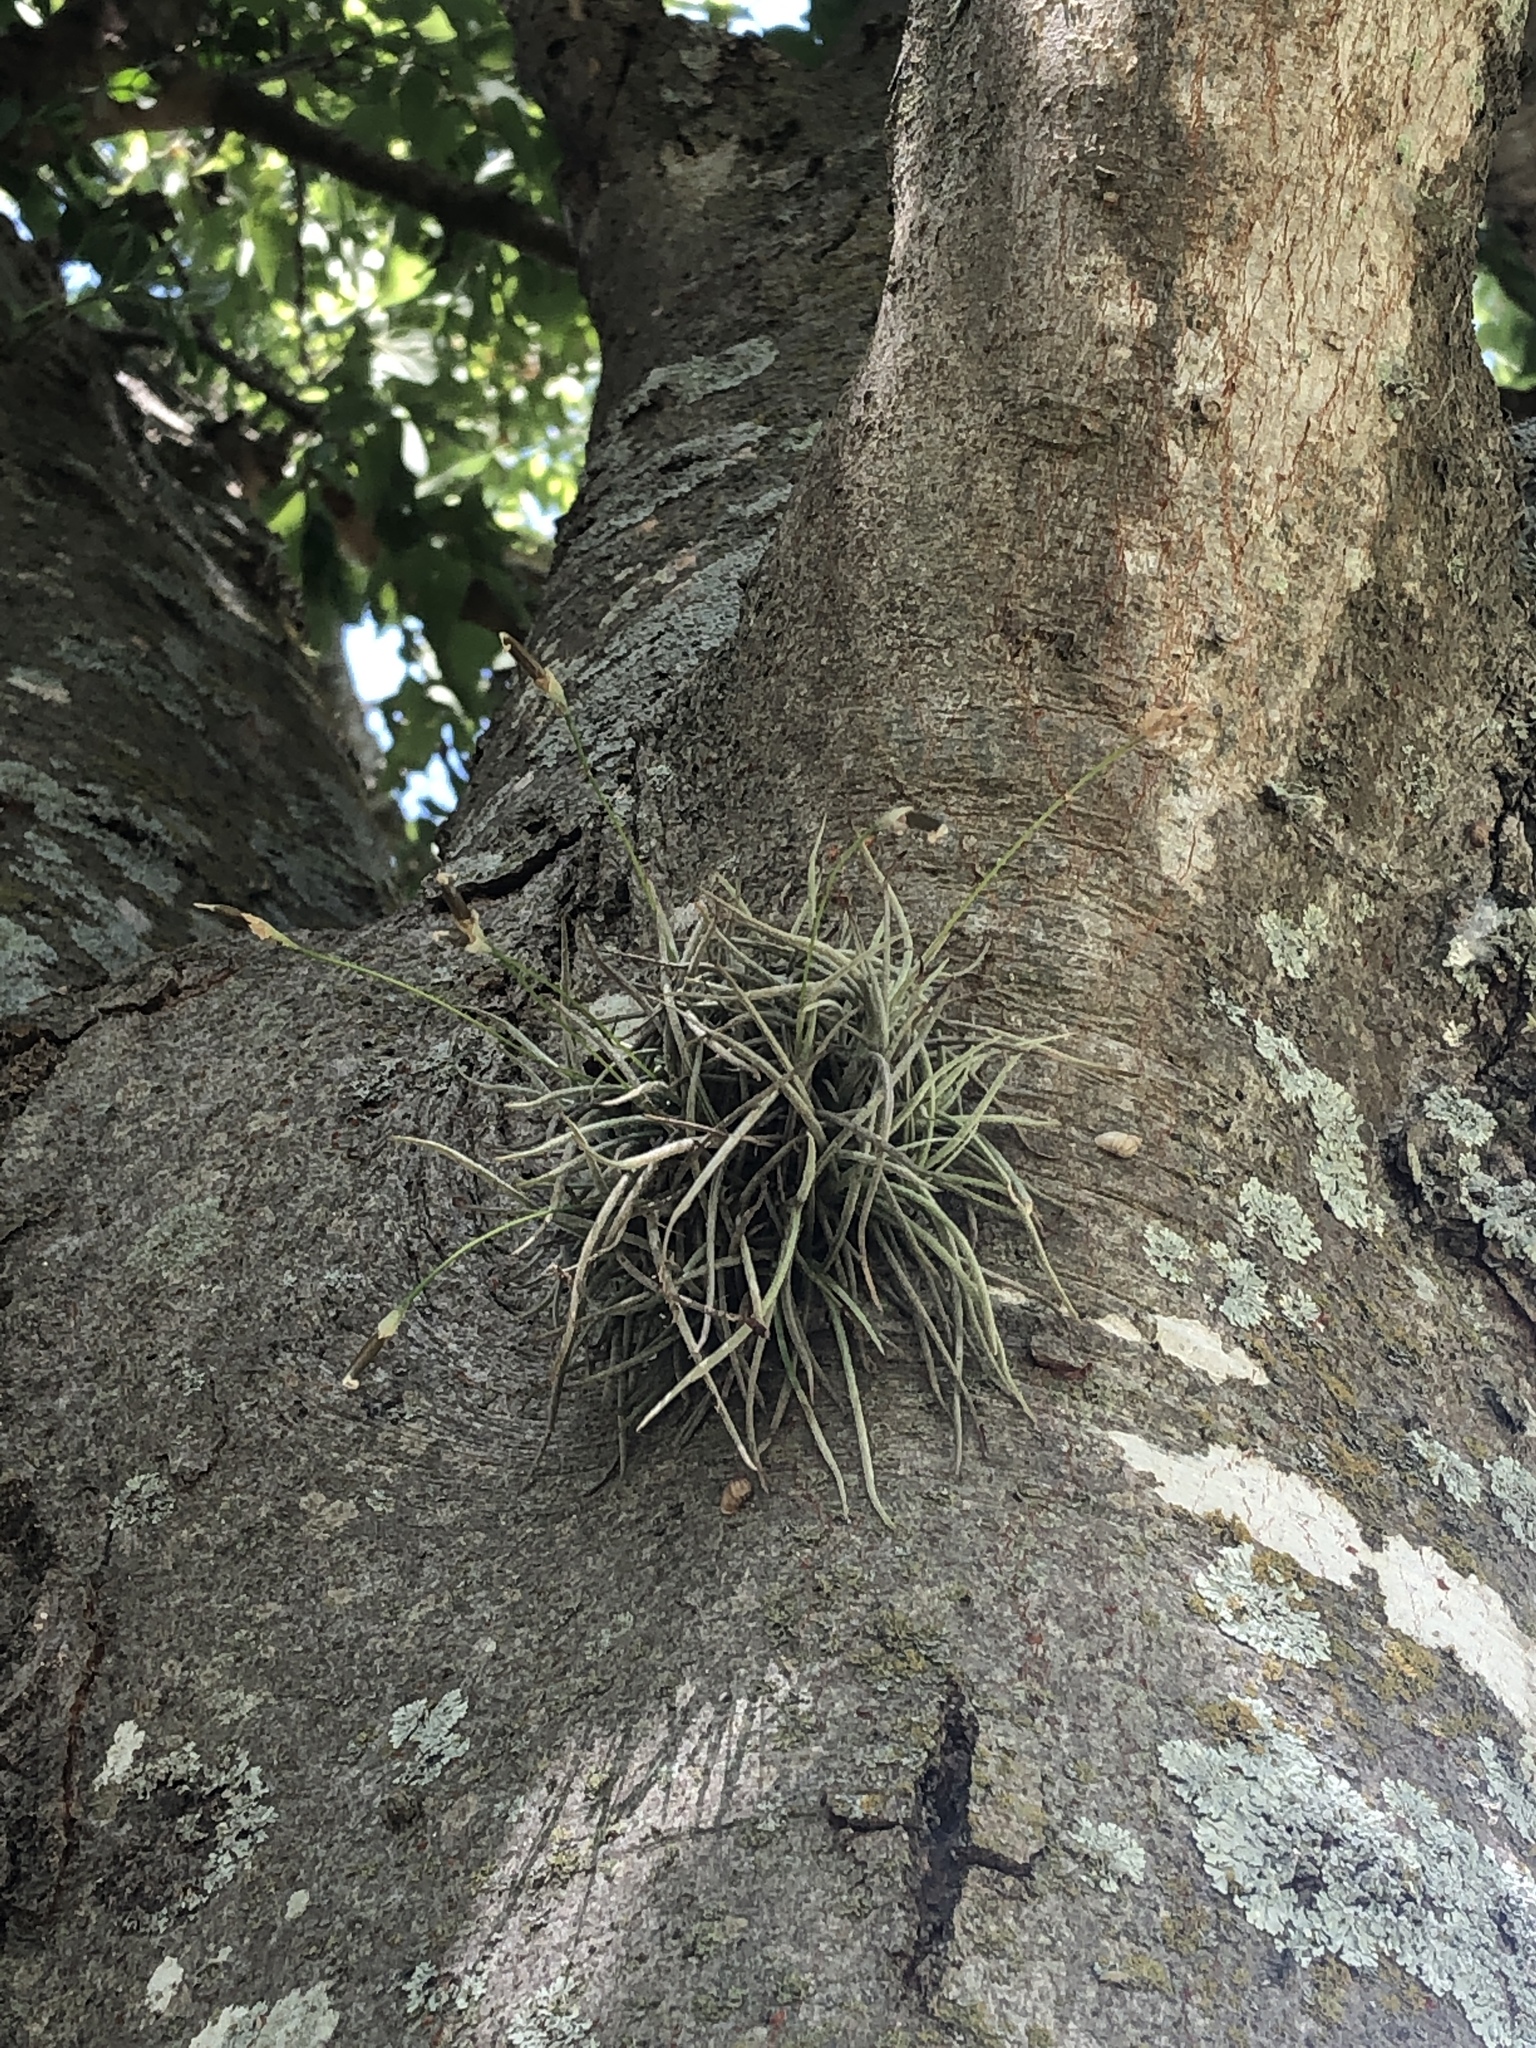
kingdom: Plantae
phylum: Tracheophyta
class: Liliopsida
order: Poales
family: Bromeliaceae
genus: Tillandsia
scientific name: Tillandsia recurvata
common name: Small ballmoss
